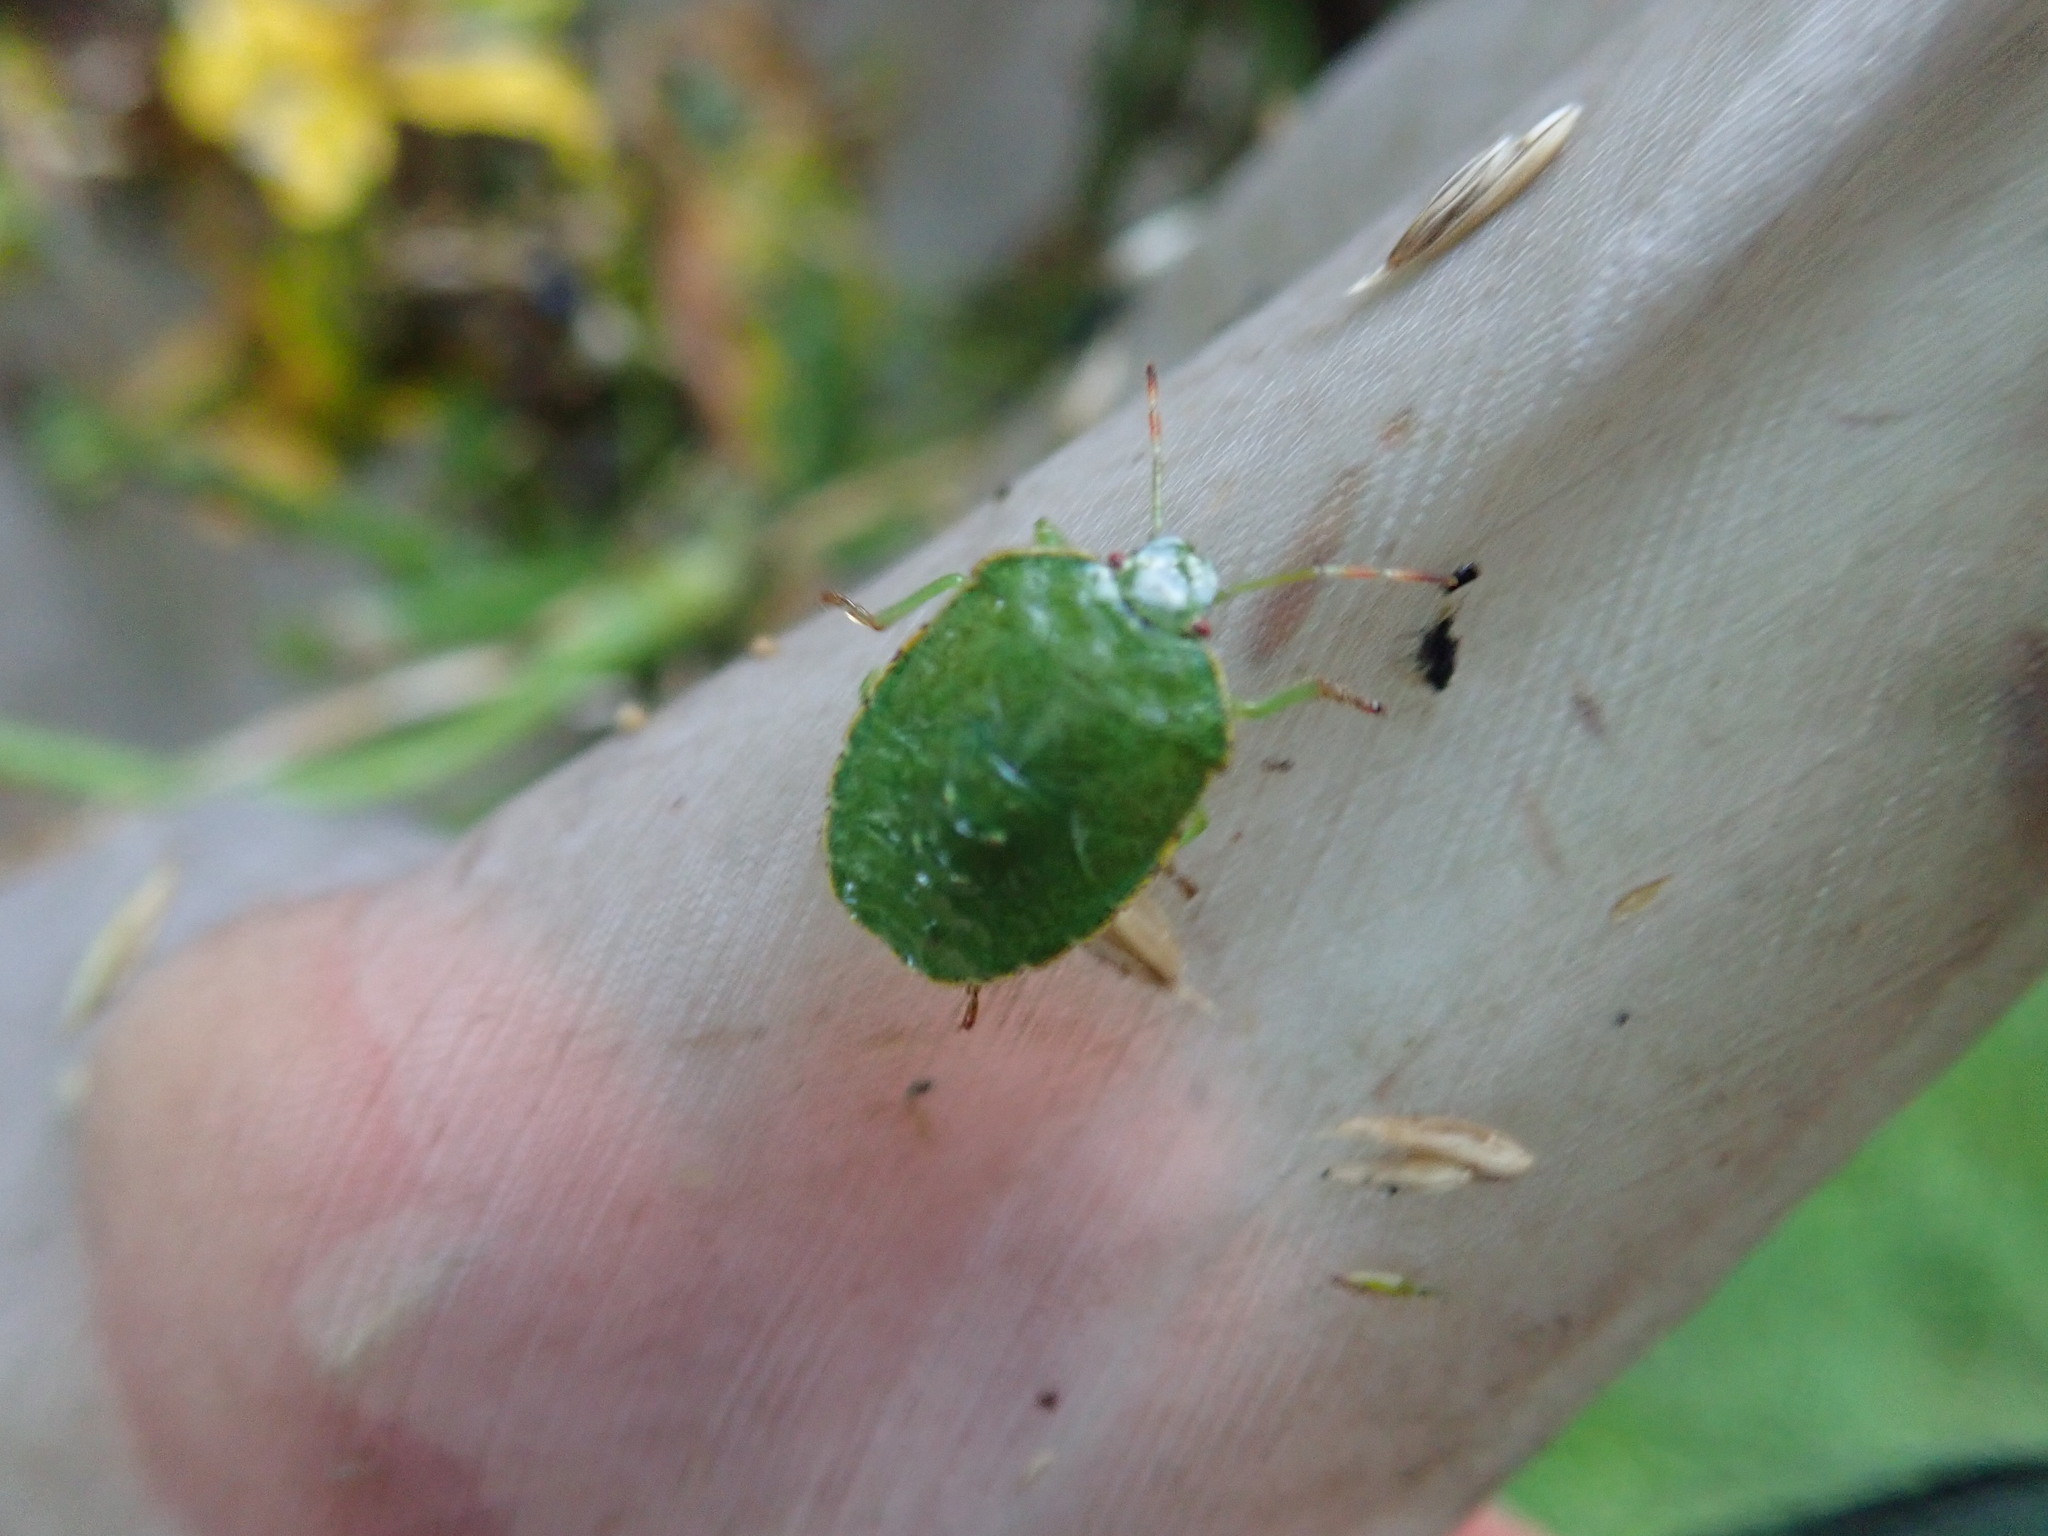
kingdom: Animalia
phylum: Arthropoda
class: Insecta
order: Hemiptera
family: Pentatomidae
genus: Palomena
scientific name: Palomena prasina
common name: Green shieldbug
